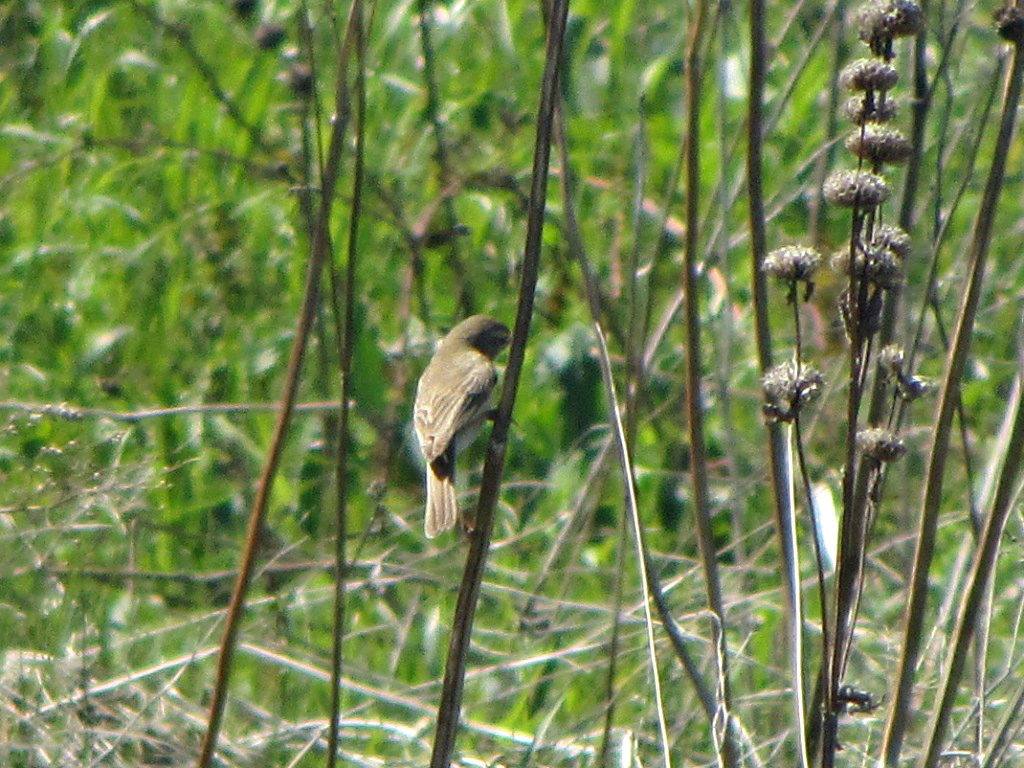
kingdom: Animalia
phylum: Chordata
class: Aves
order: Passeriformes
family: Acrocephalidae
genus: Iduna
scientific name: Iduna caligata
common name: Booted warbler
